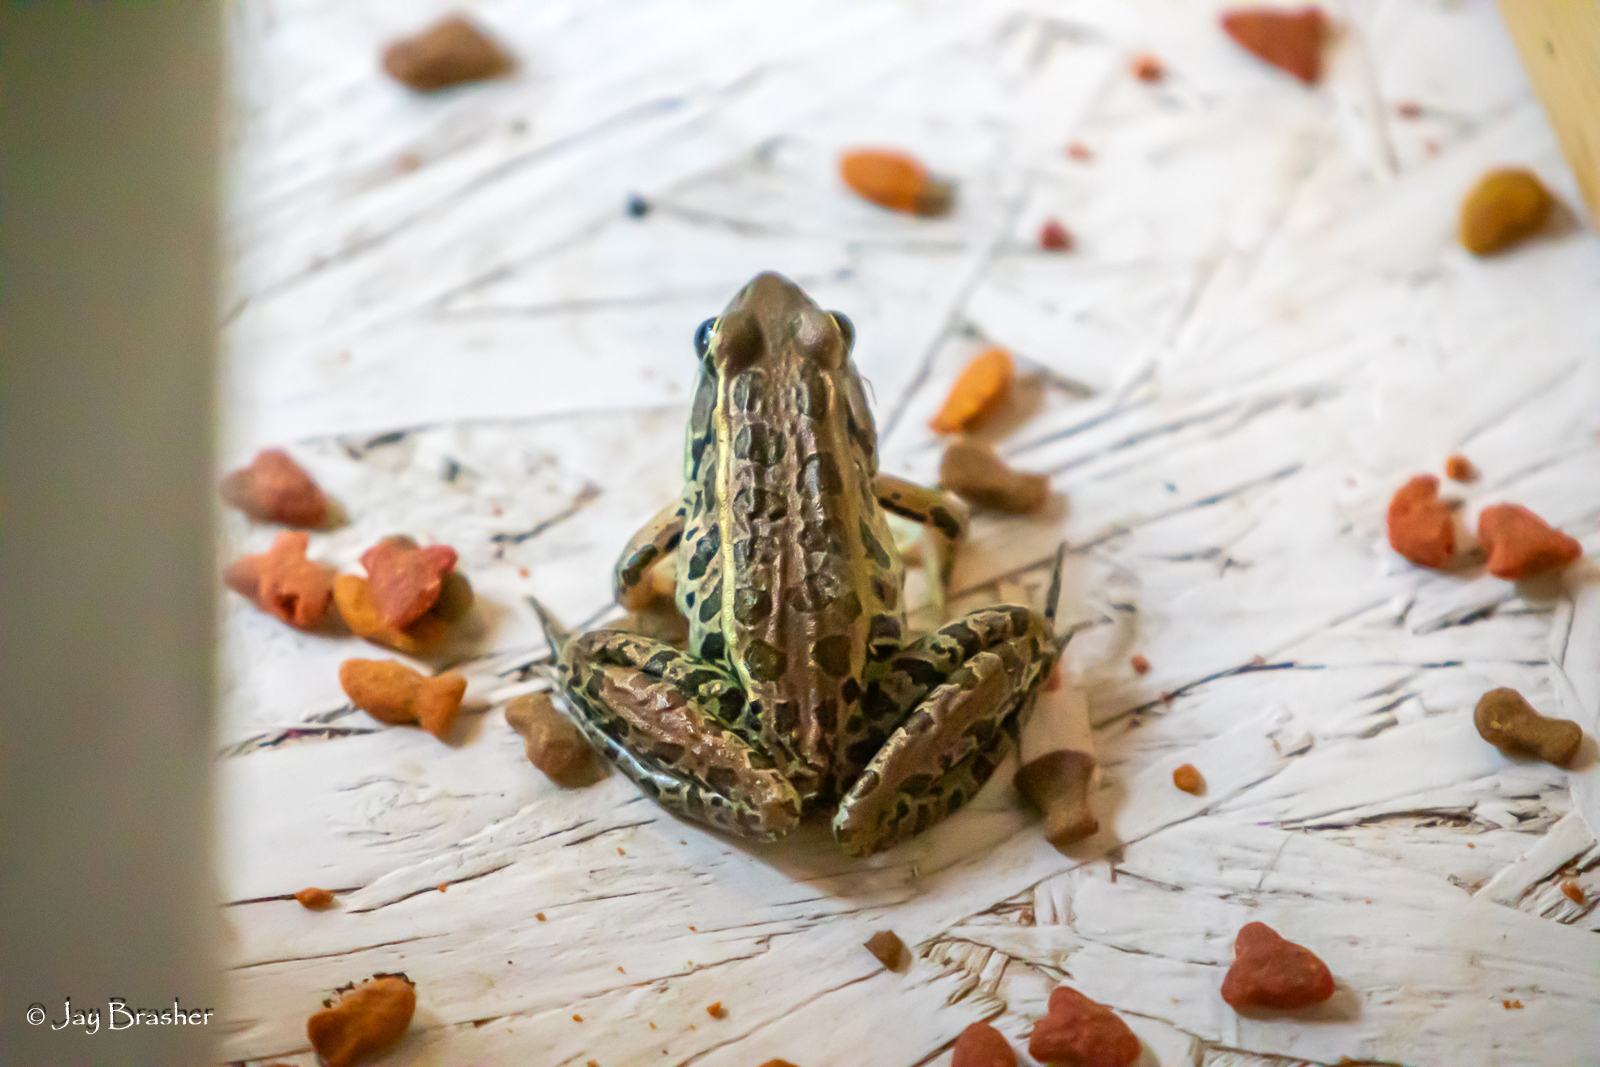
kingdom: Animalia
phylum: Chordata
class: Amphibia
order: Anura
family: Ranidae
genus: Lithobates
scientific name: Lithobates sphenocephalus
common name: Southern leopard frog
